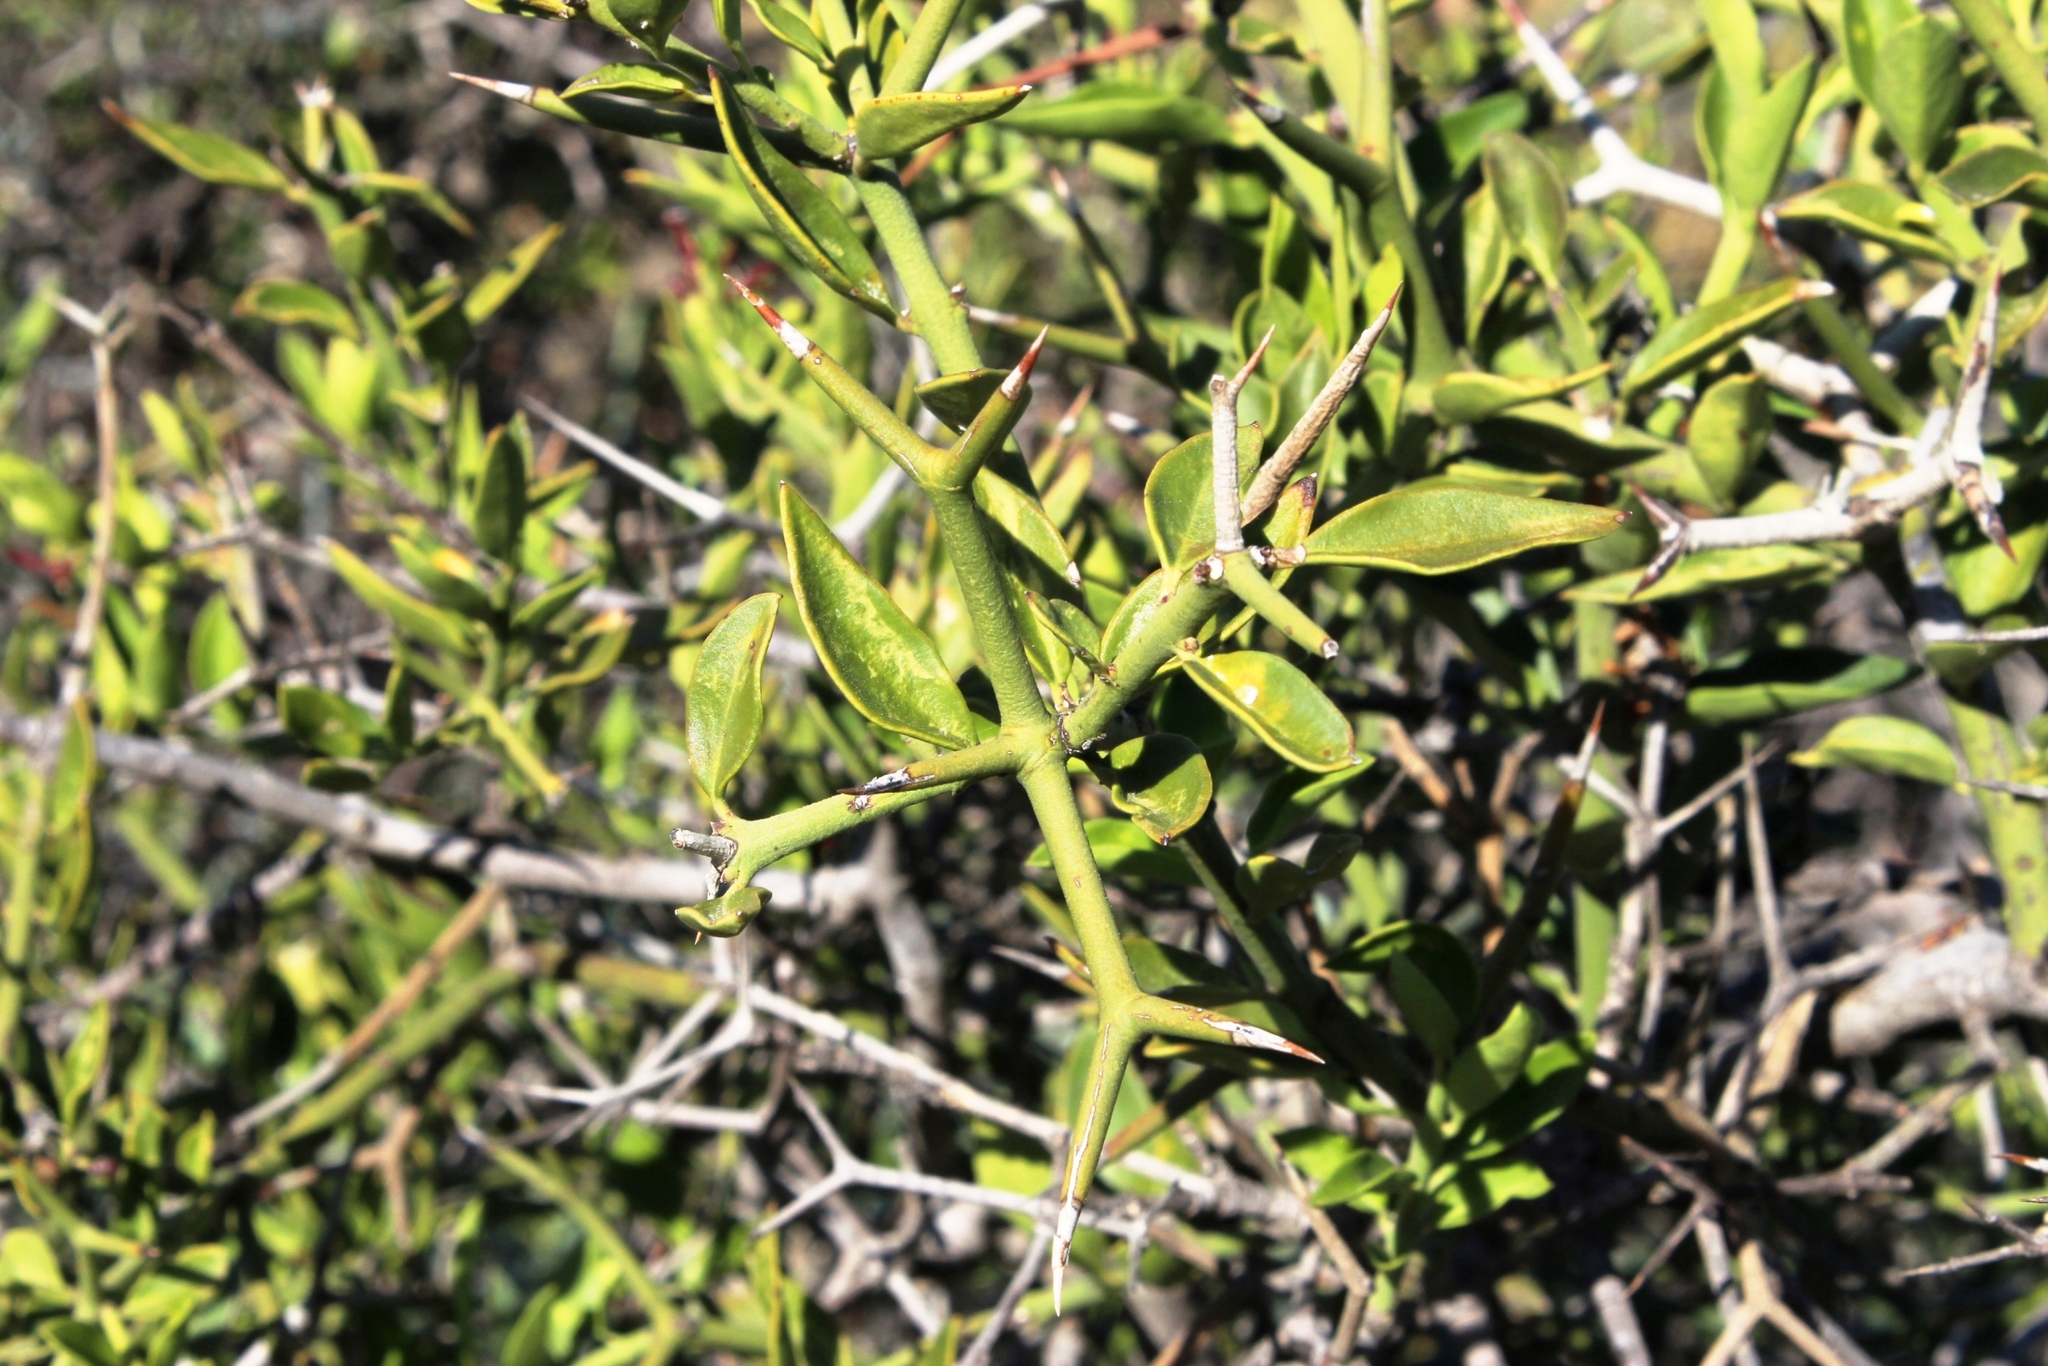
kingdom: Plantae
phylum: Tracheophyta
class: Magnoliopsida
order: Gentianales
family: Apocynaceae
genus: Carissa
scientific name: Carissa haematocarpa
